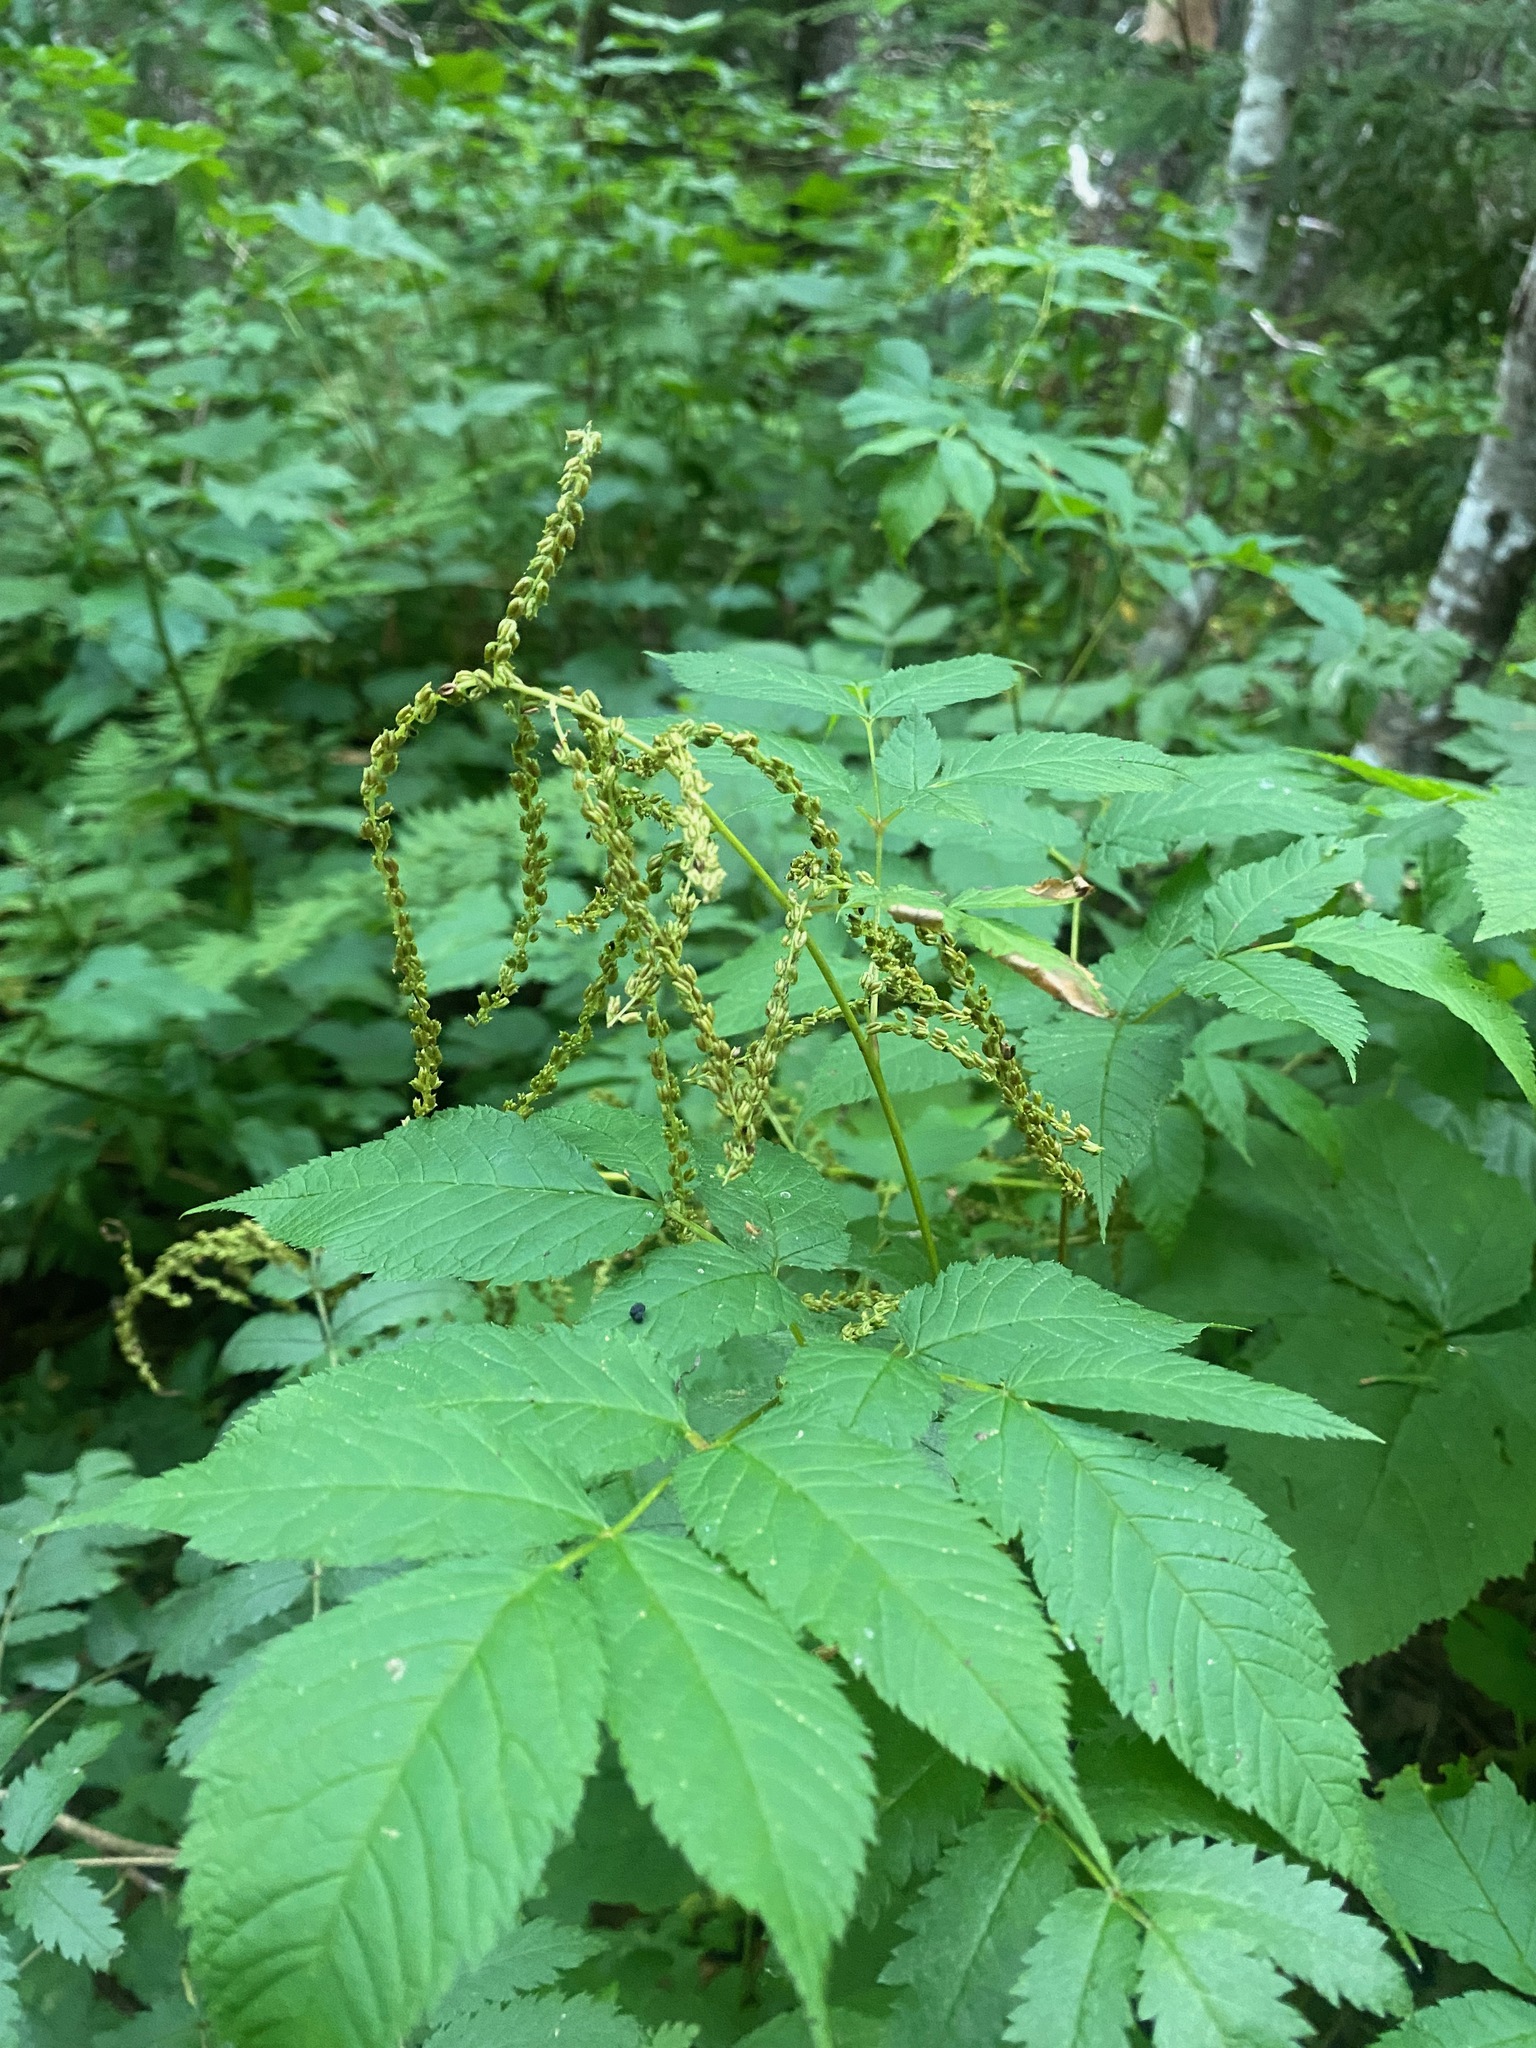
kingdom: Plantae
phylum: Tracheophyta
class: Magnoliopsida
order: Rosales
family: Rosaceae
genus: Aruncus
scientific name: Aruncus dioicus
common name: Buck's-beard
